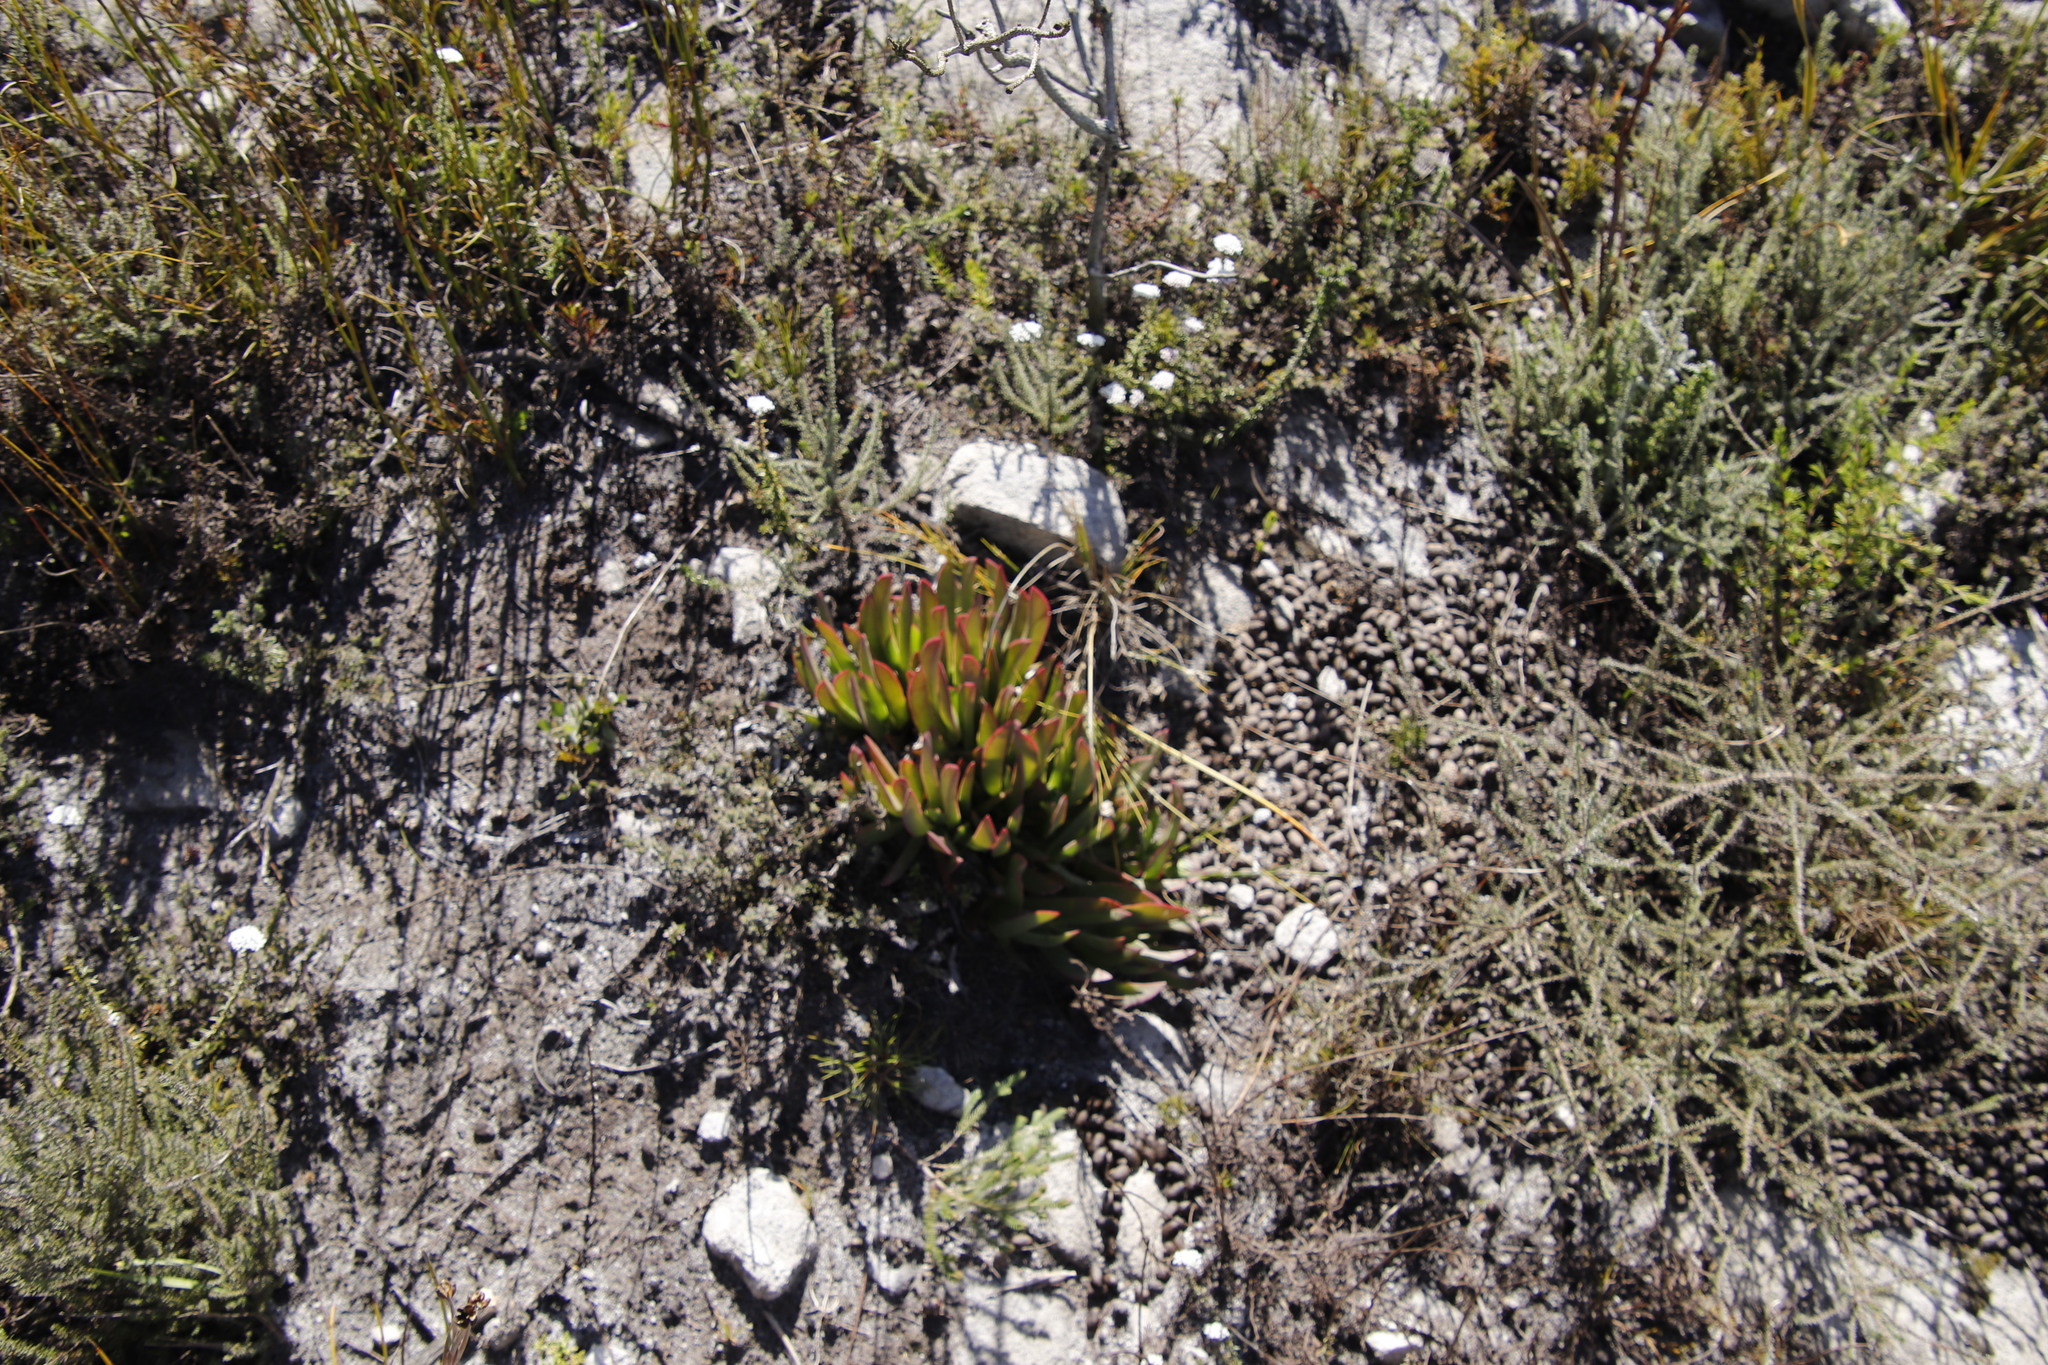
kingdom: Plantae
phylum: Tracheophyta
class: Magnoliopsida
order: Caryophyllales
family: Aizoaceae
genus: Carpobrotus
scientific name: Carpobrotus mellei
